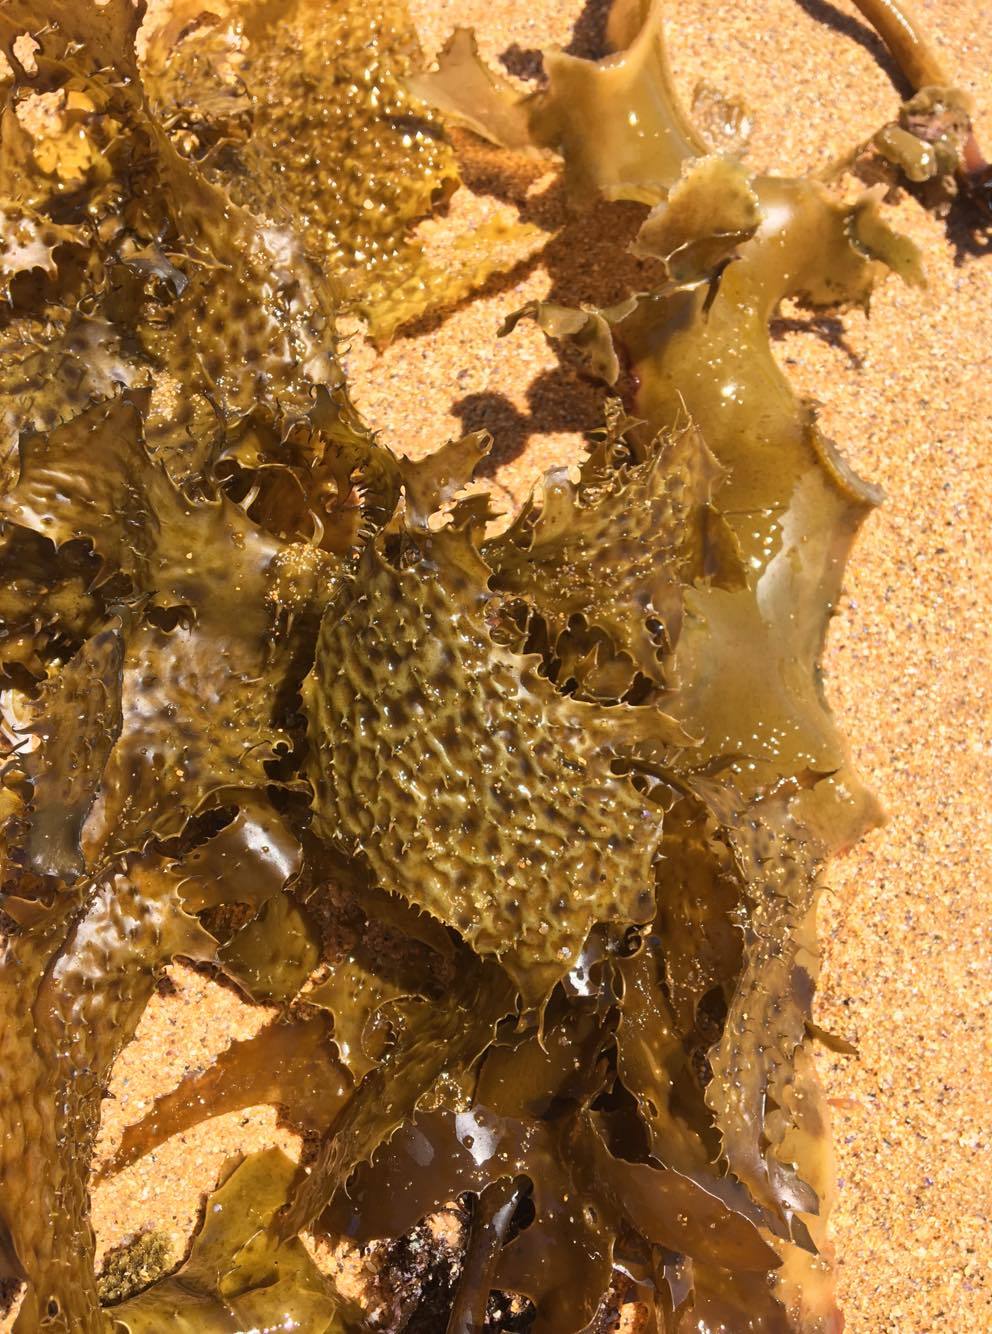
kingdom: Chromista
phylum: Ochrophyta
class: Phaeophyceae
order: Laminariales
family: Lessoniaceae
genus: Ecklonia
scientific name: Ecklonia radiata
